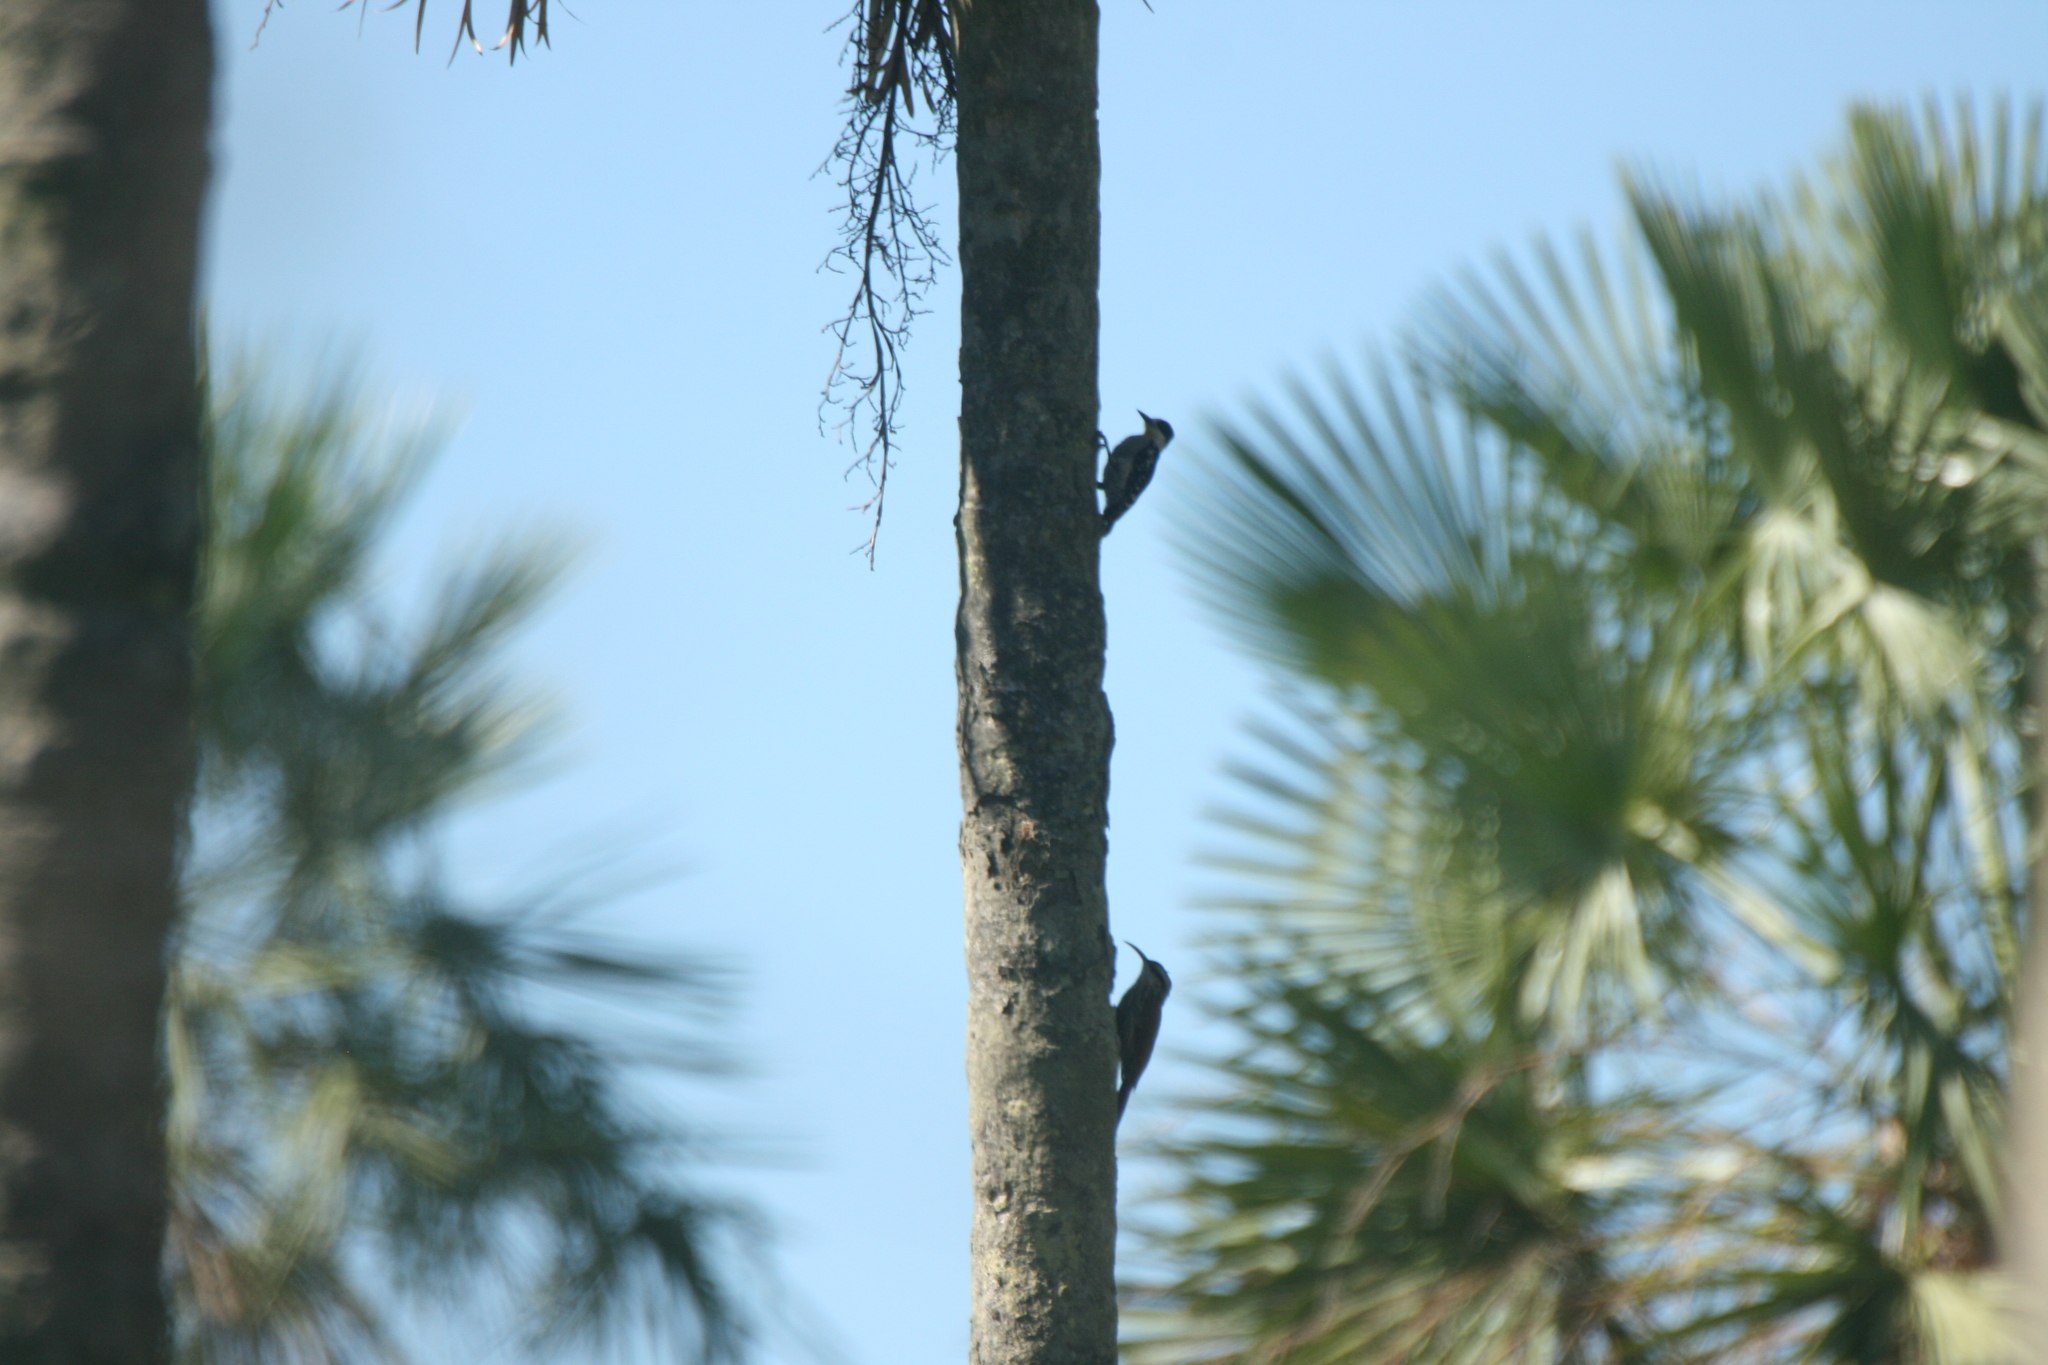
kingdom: Animalia
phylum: Chordata
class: Aves
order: Piciformes
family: Picidae
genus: Melanerpes
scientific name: Melanerpes cactorum
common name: White-fronted woodpecker
